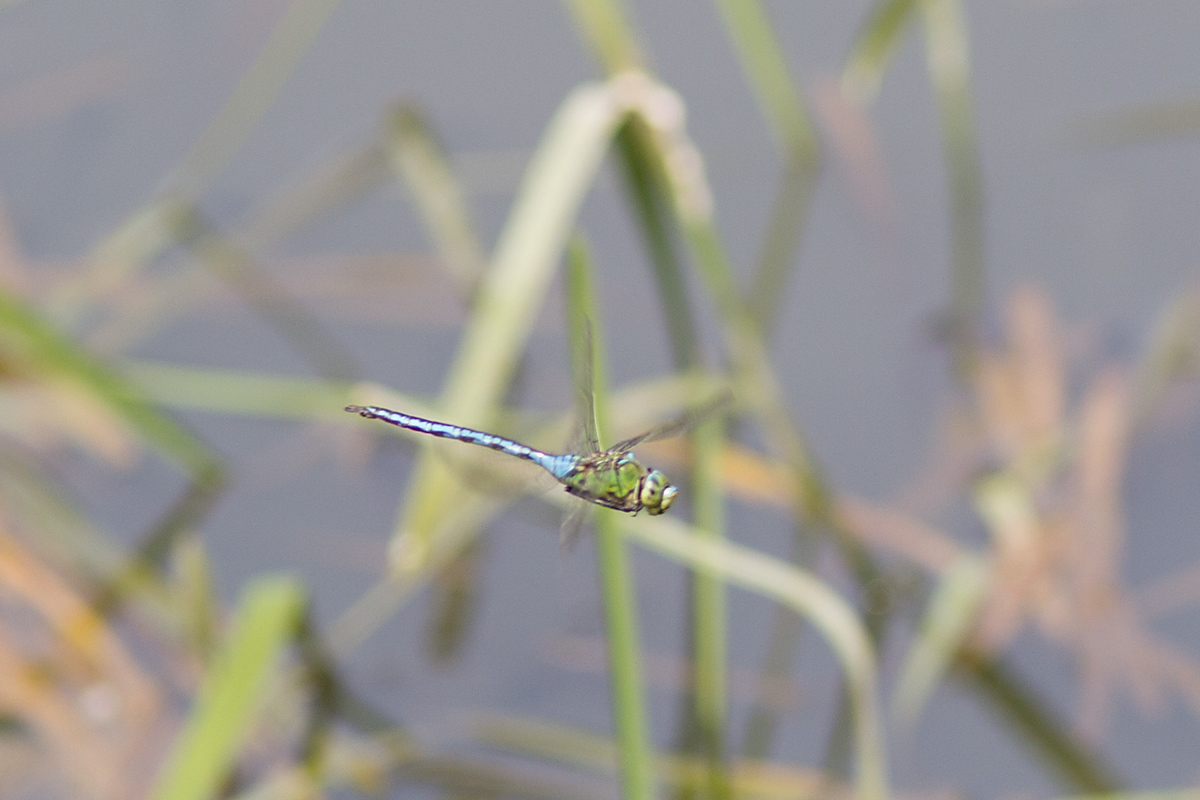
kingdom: Animalia
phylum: Arthropoda
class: Insecta
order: Odonata
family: Aeshnidae
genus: Anax
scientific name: Anax imperator
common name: Emperor dragonfly
